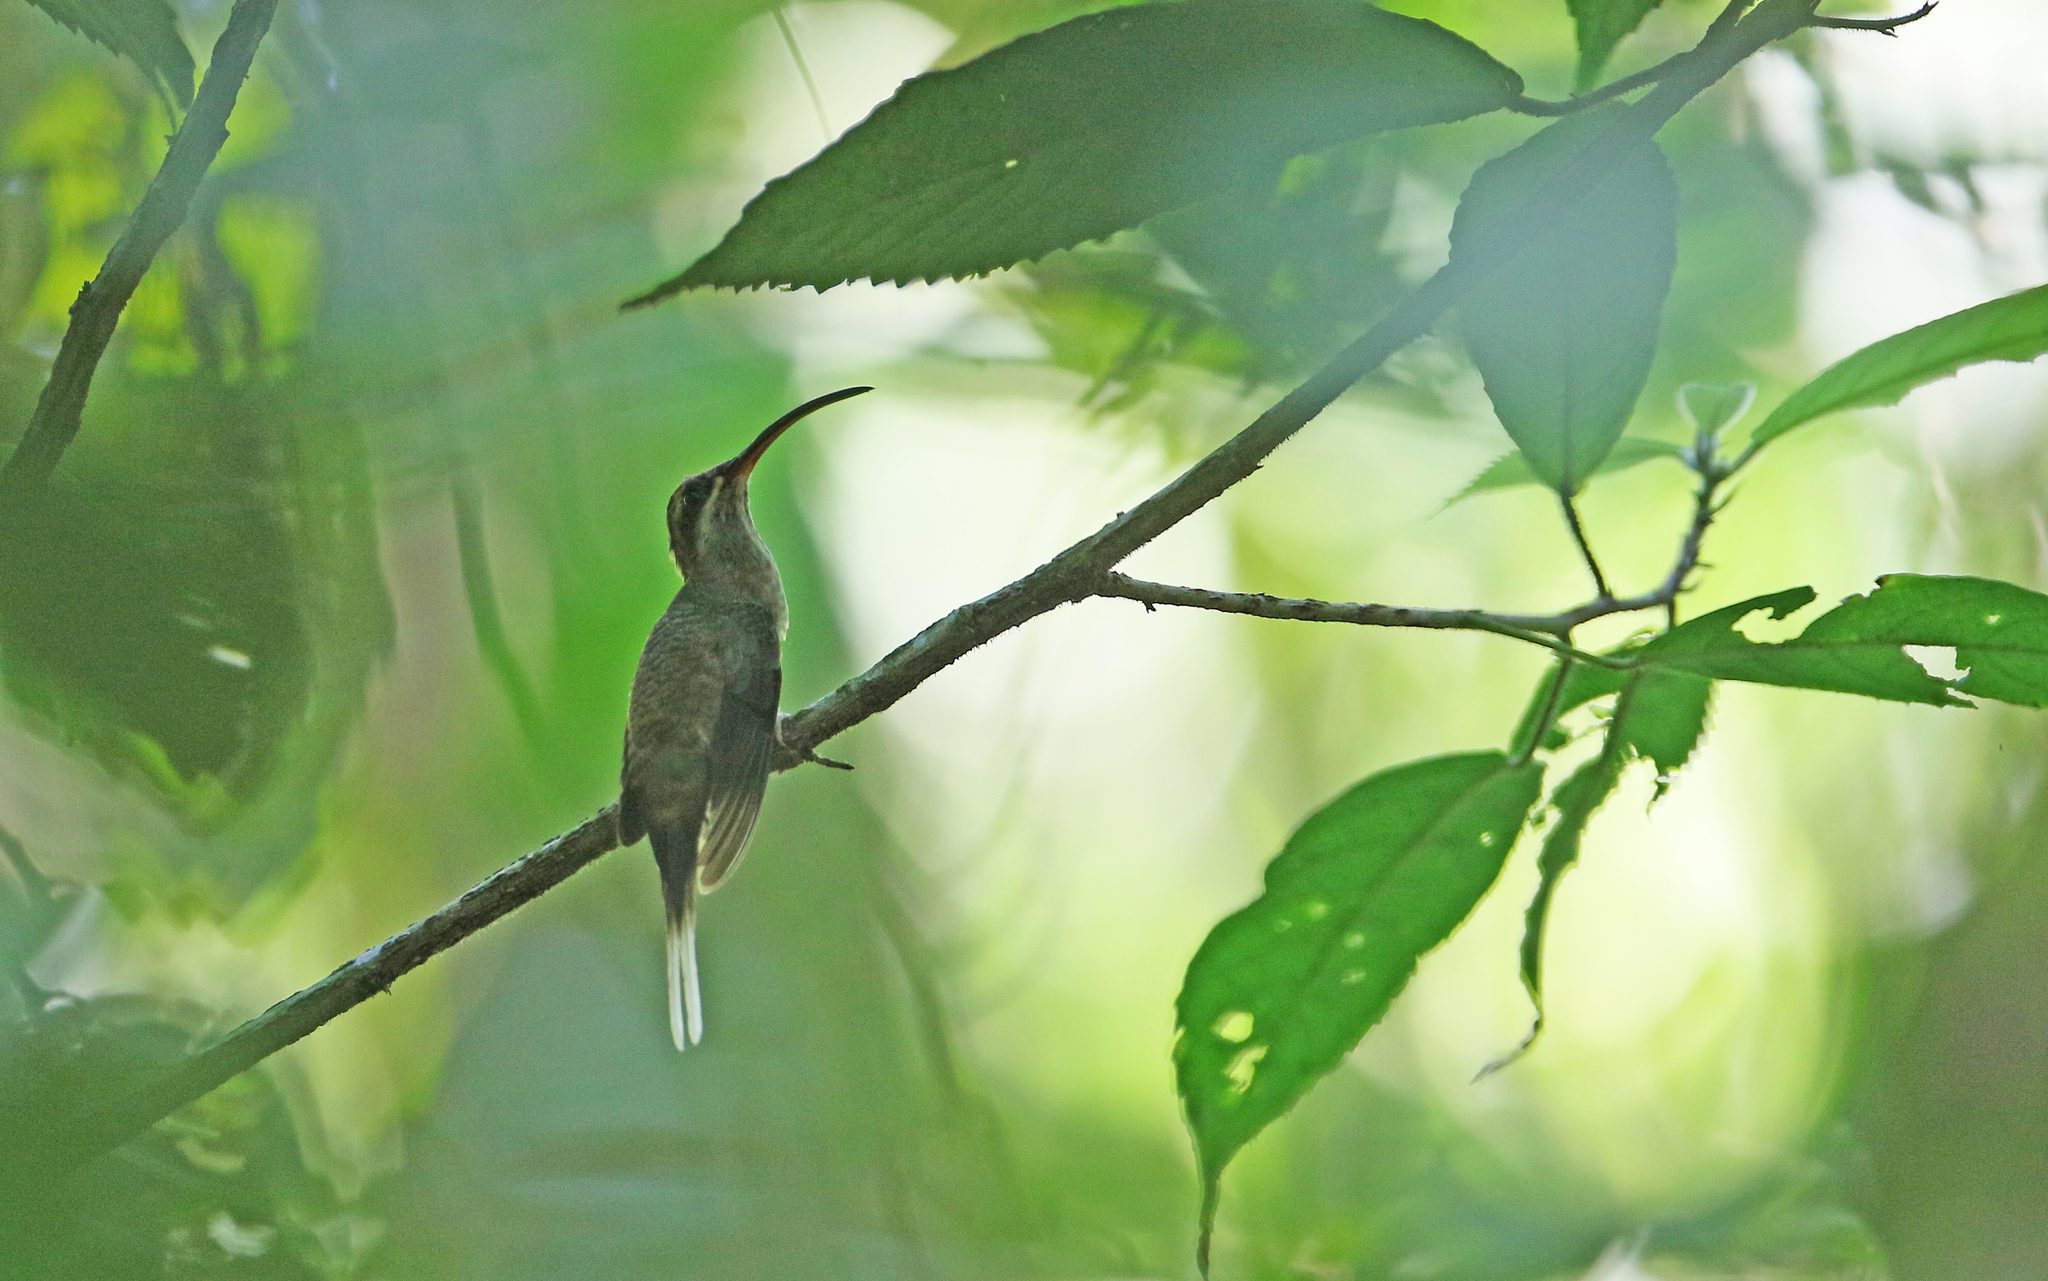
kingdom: Animalia
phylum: Chordata
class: Aves
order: Apodiformes
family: Trochilidae
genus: Phaethornis
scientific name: Phaethornis hispidus
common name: White-bearded hermit
